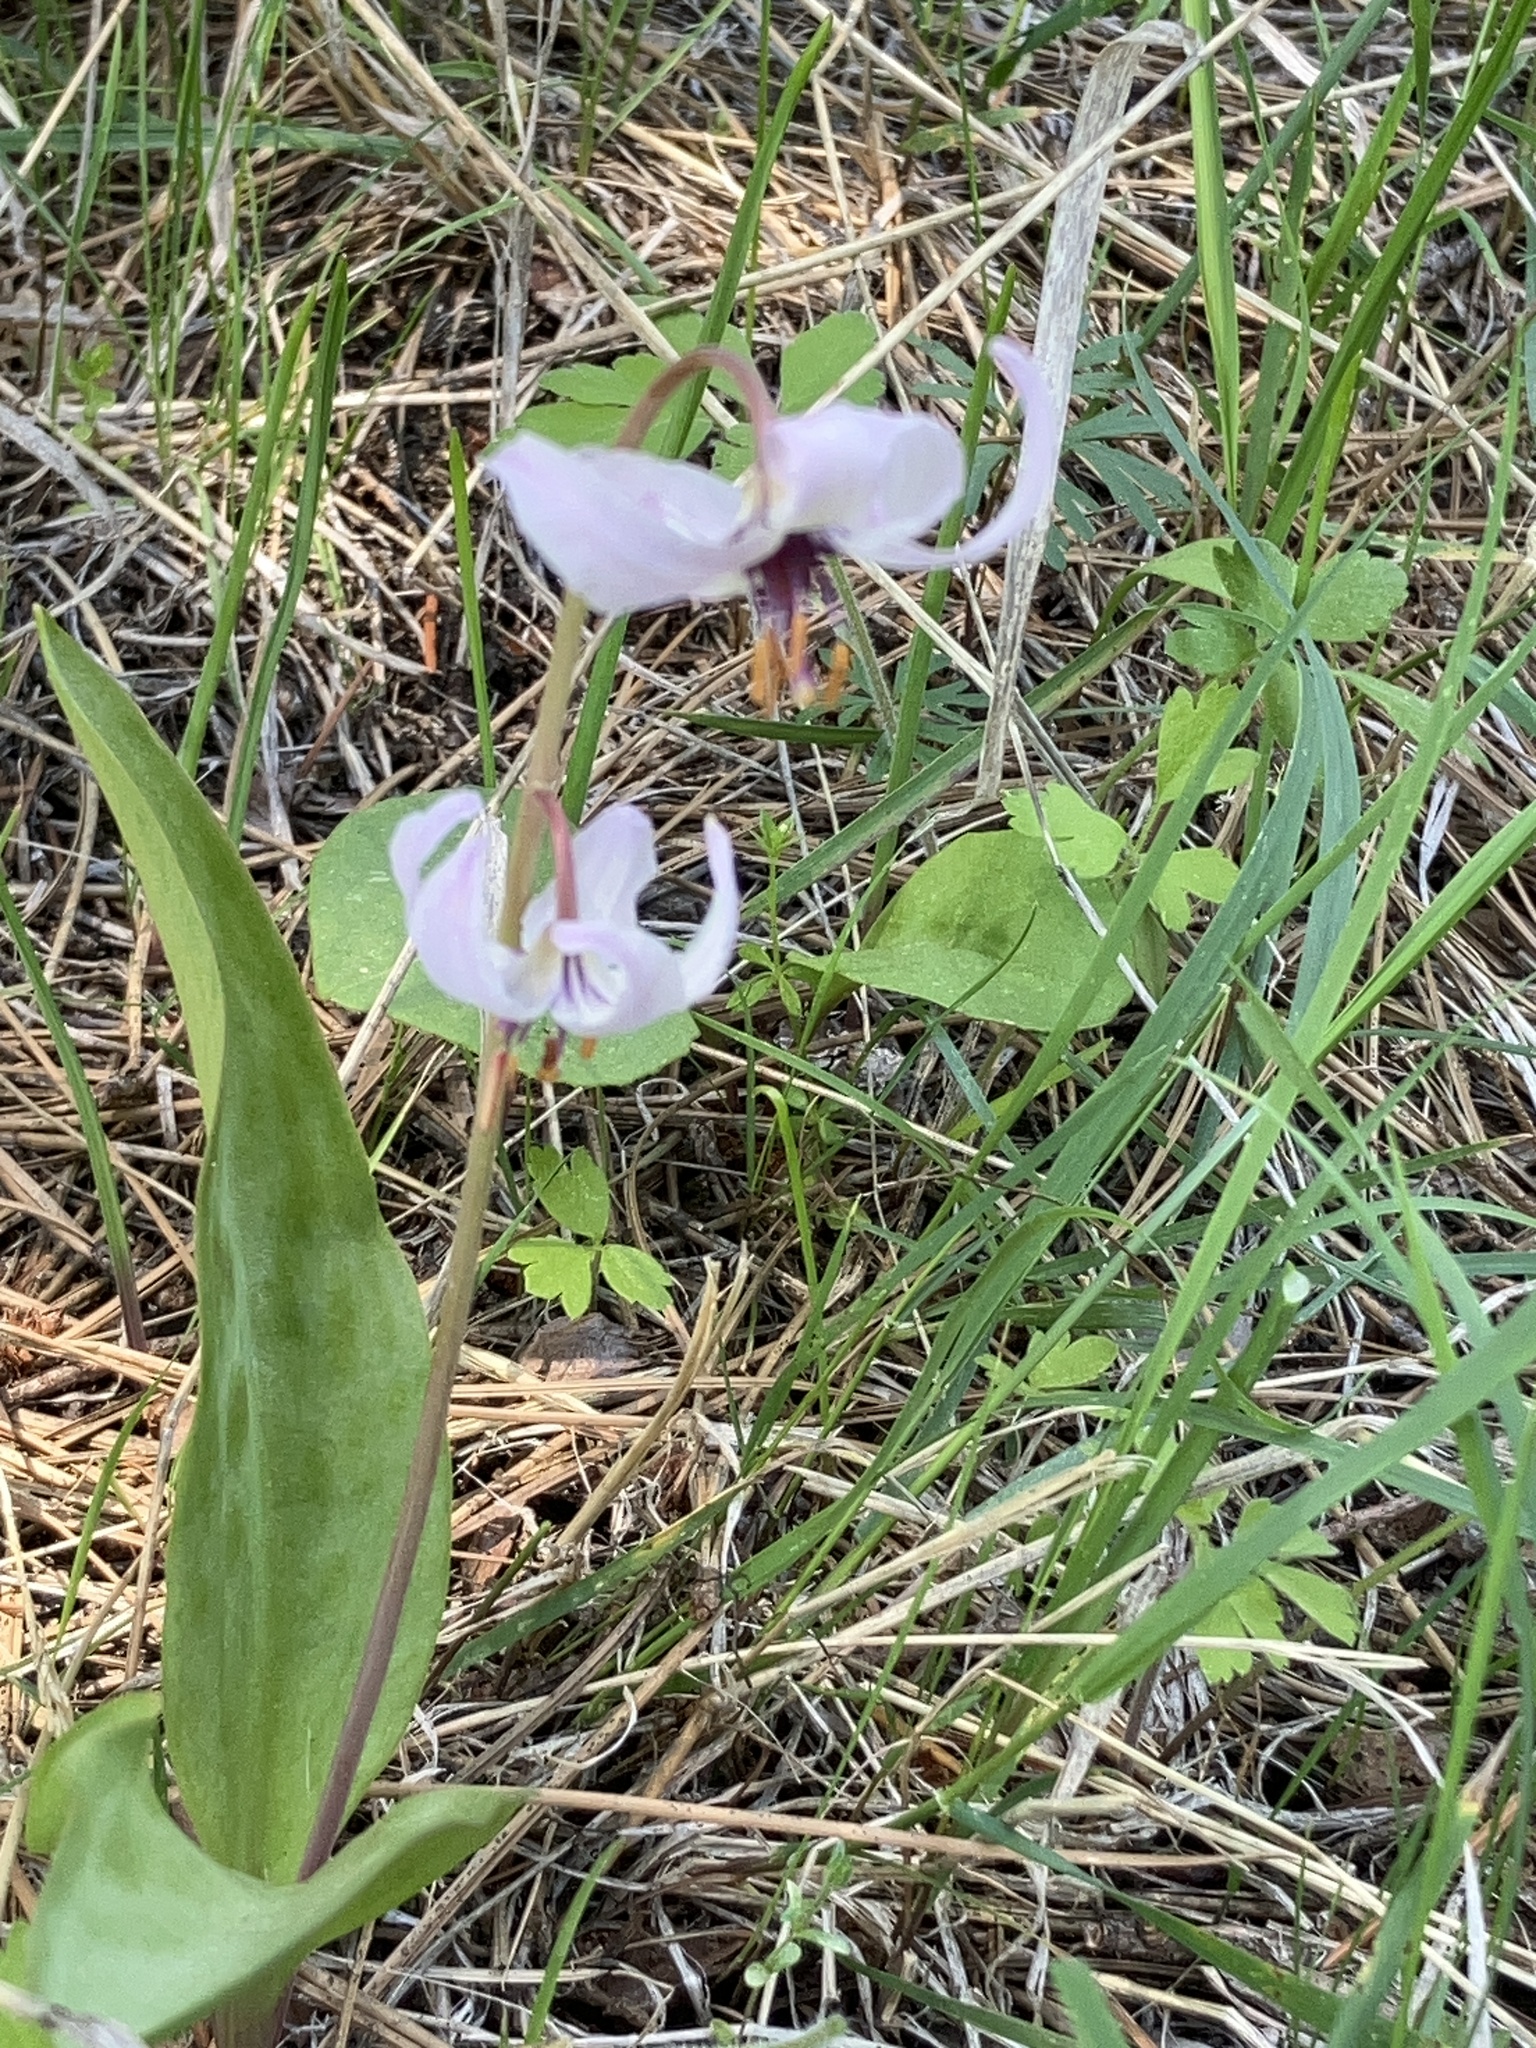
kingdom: Plantae
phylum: Tracheophyta
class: Liliopsida
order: Liliales
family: Liliaceae
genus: Erythronium
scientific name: Erythronium hendersonii
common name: Henderson's fawn-lily
